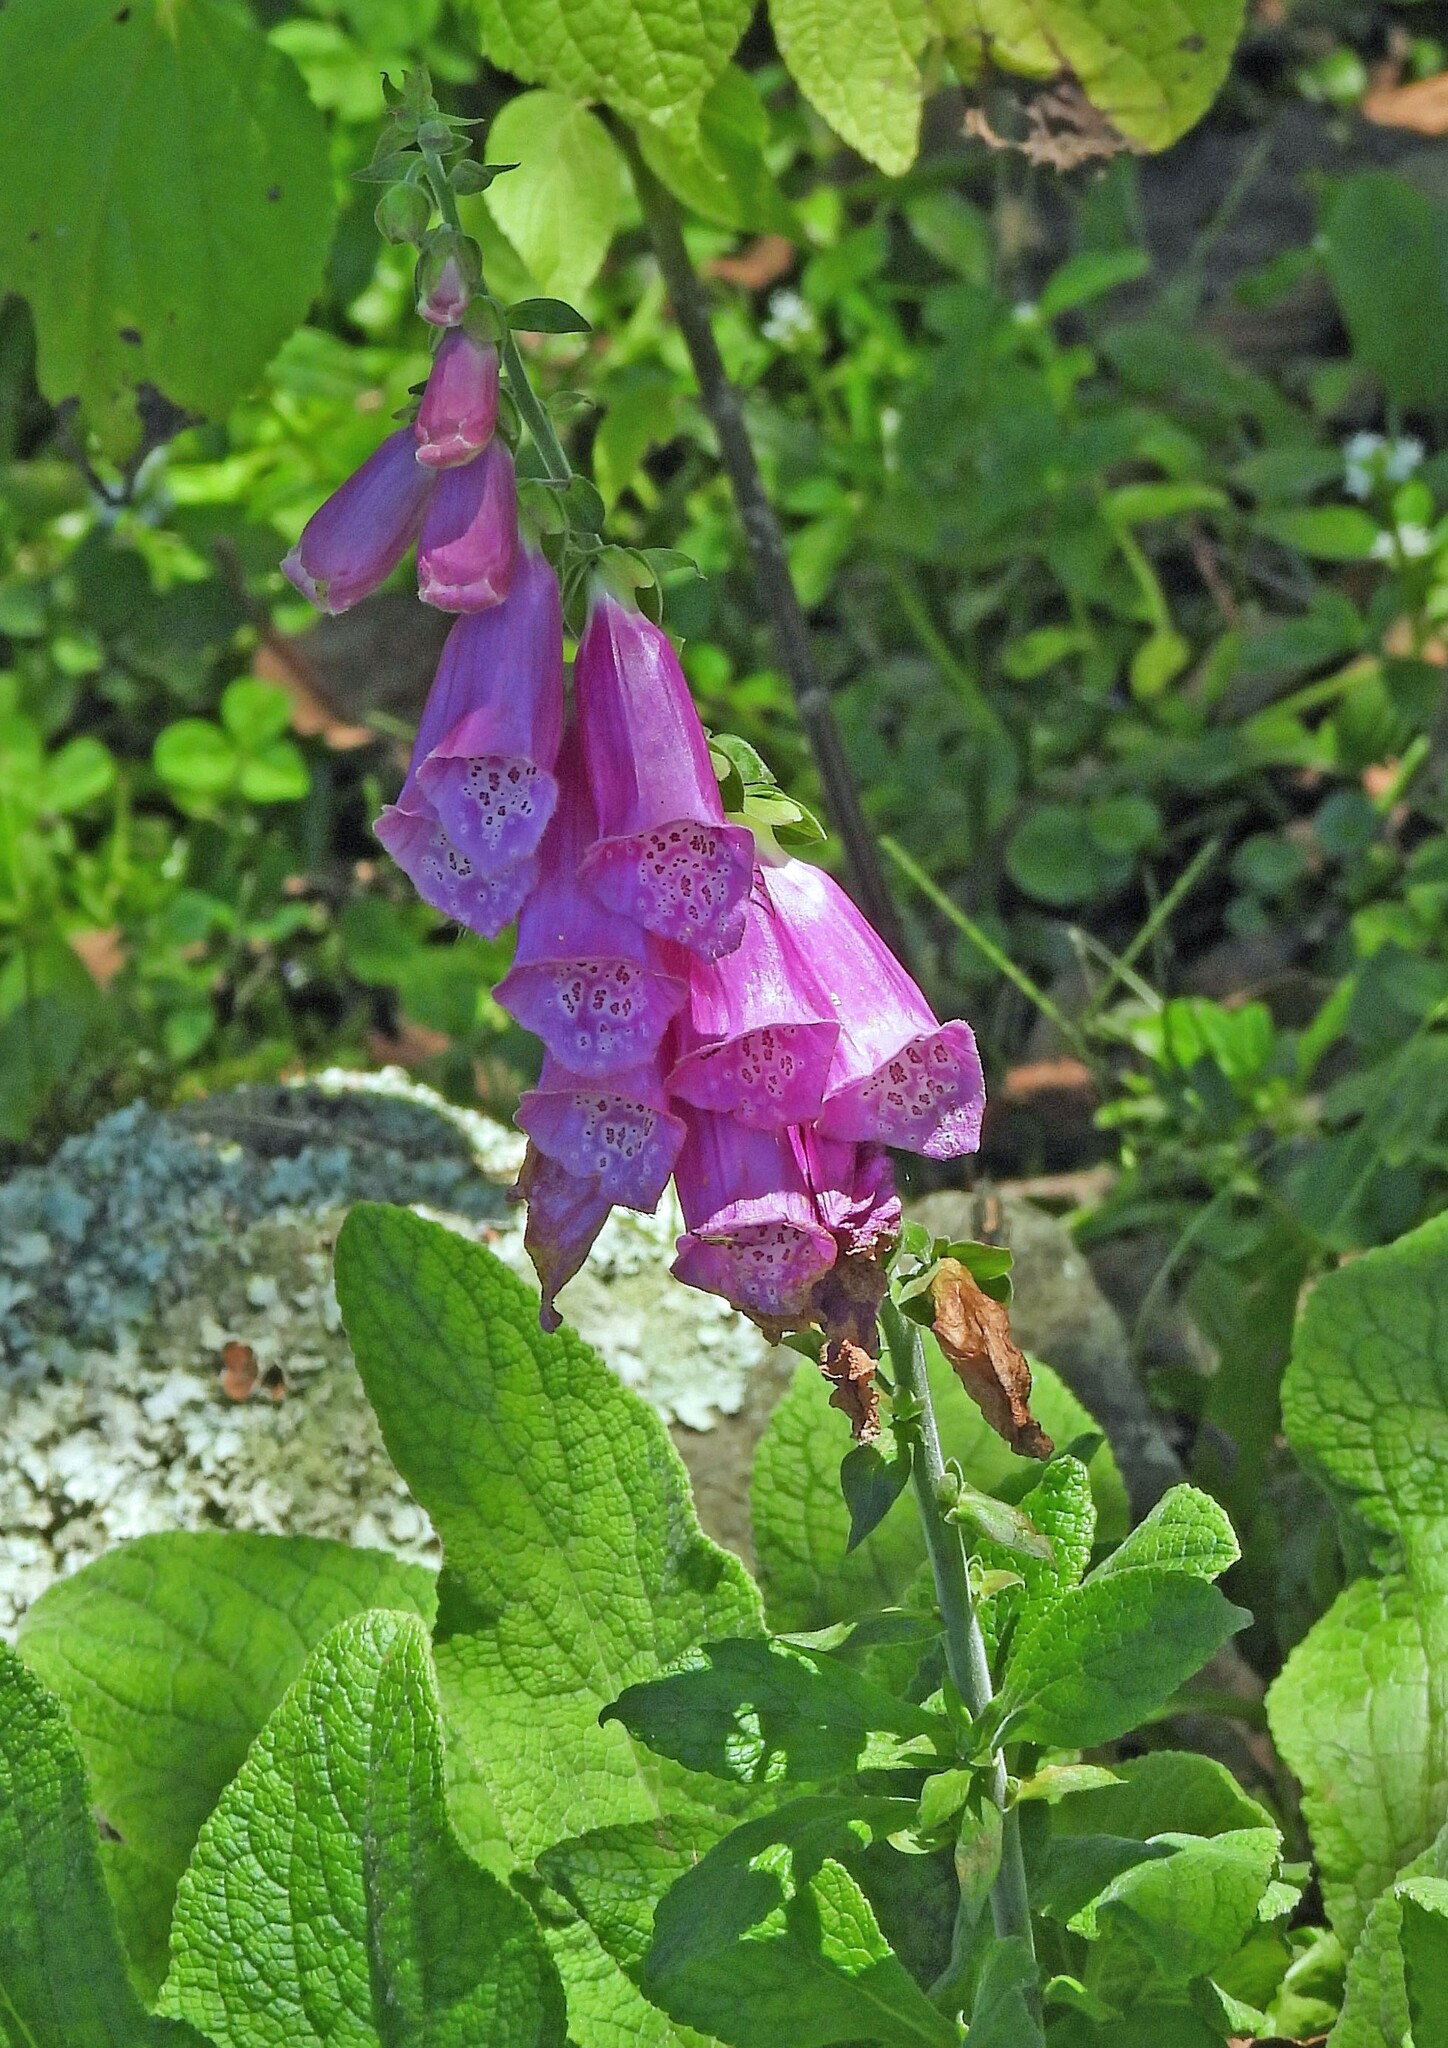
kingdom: Plantae
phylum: Tracheophyta
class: Magnoliopsida
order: Lamiales
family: Plantaginaceae
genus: Digitalis
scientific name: Digitalis purpurea
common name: Foxglove
